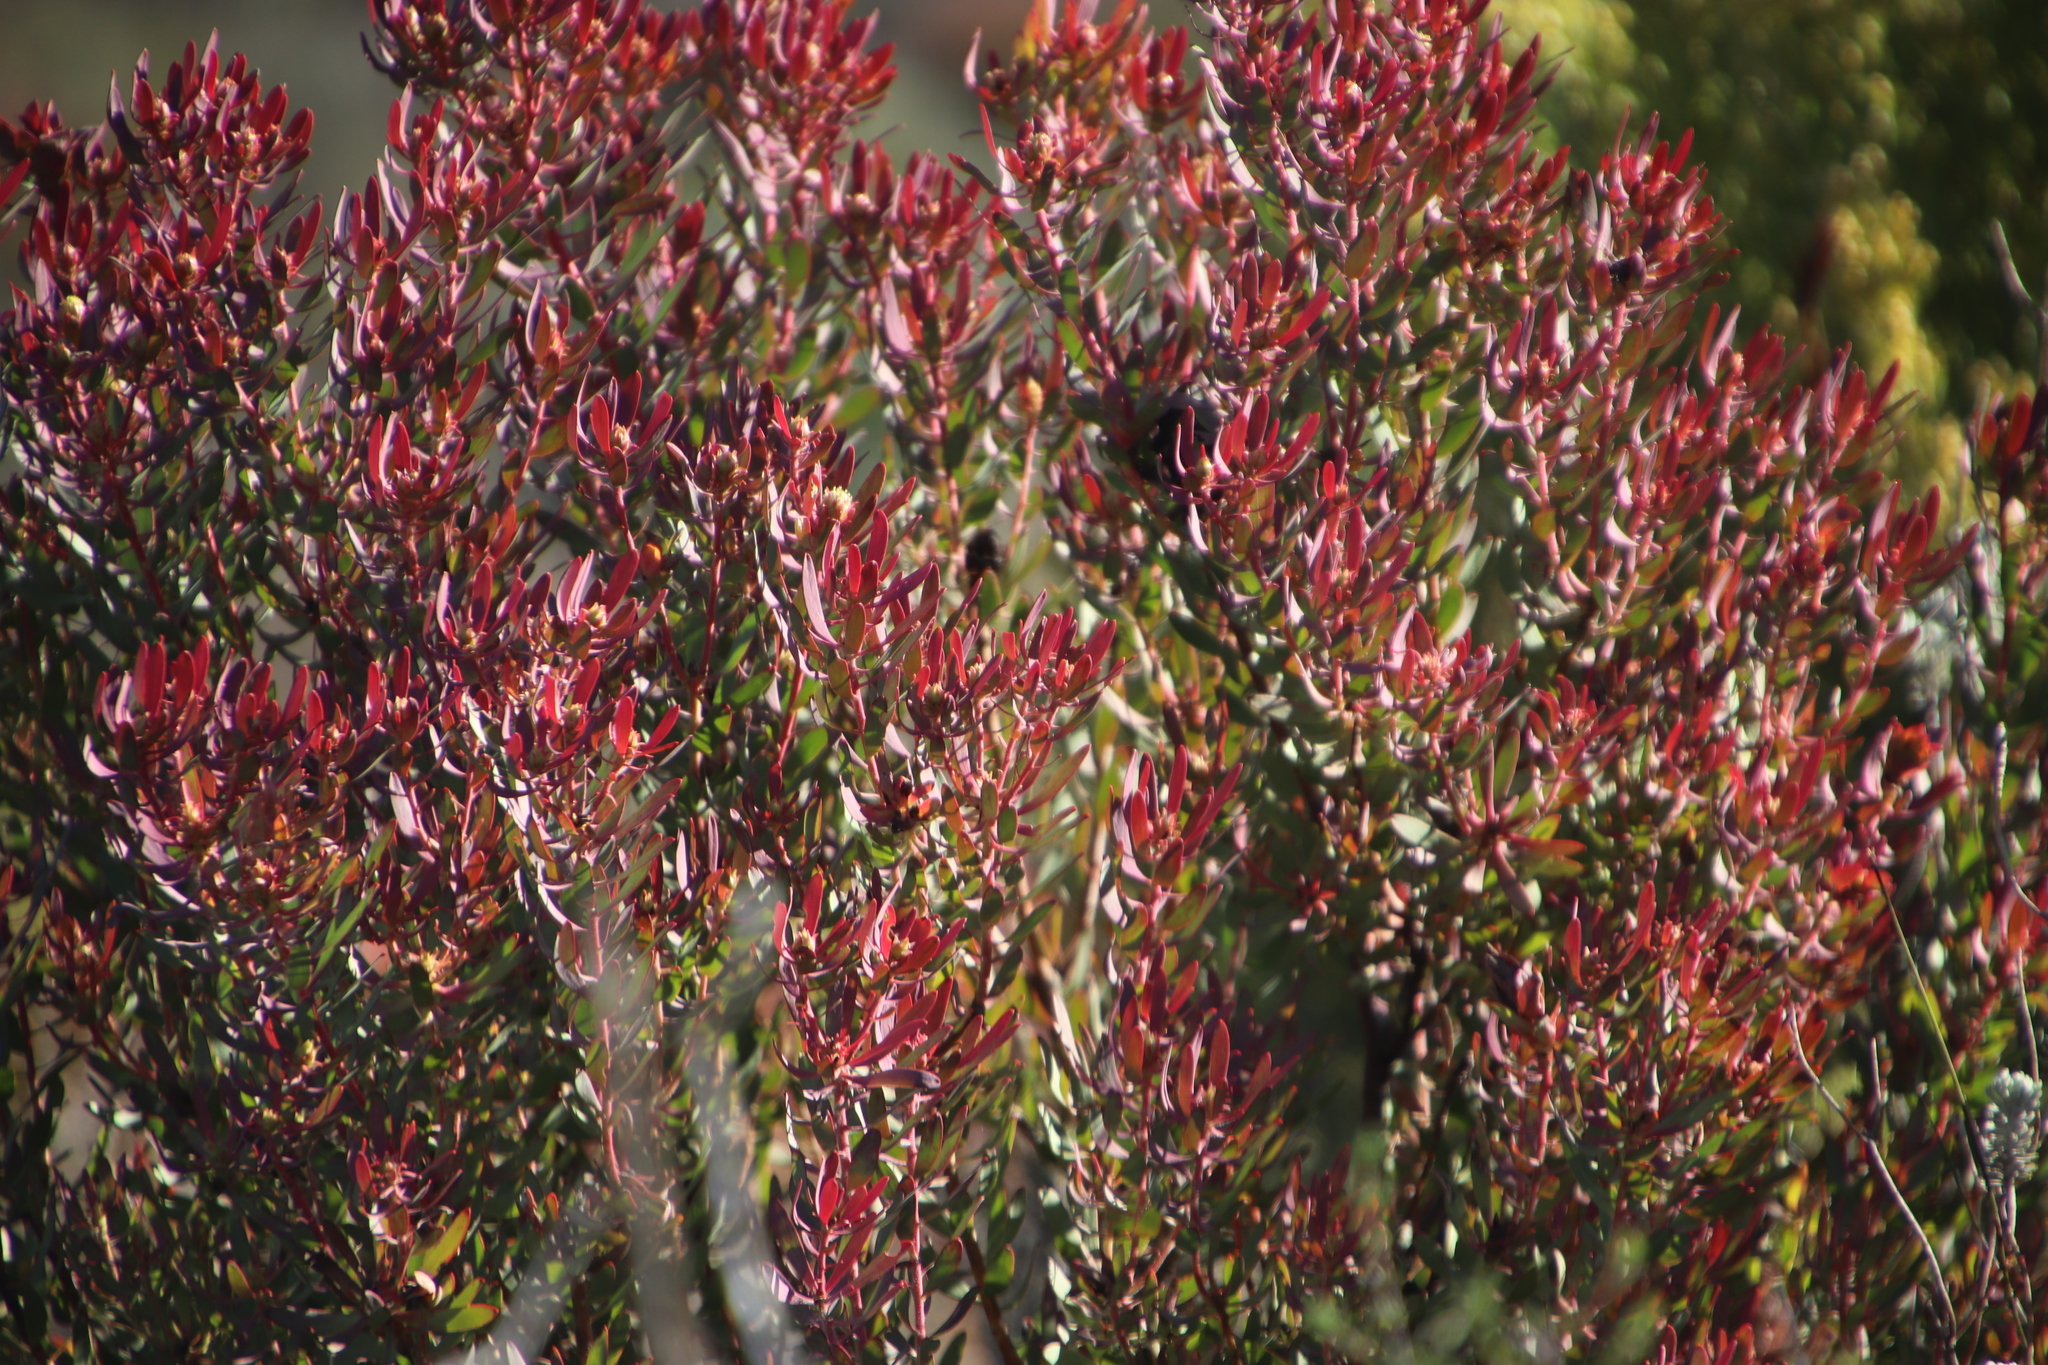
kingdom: Plantae
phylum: Tracheophyta
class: Magnoliopsida
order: Proteales
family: Proteaceae
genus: Leucadendron
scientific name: Leucadendron glaberrimum
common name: Common oily conebush
